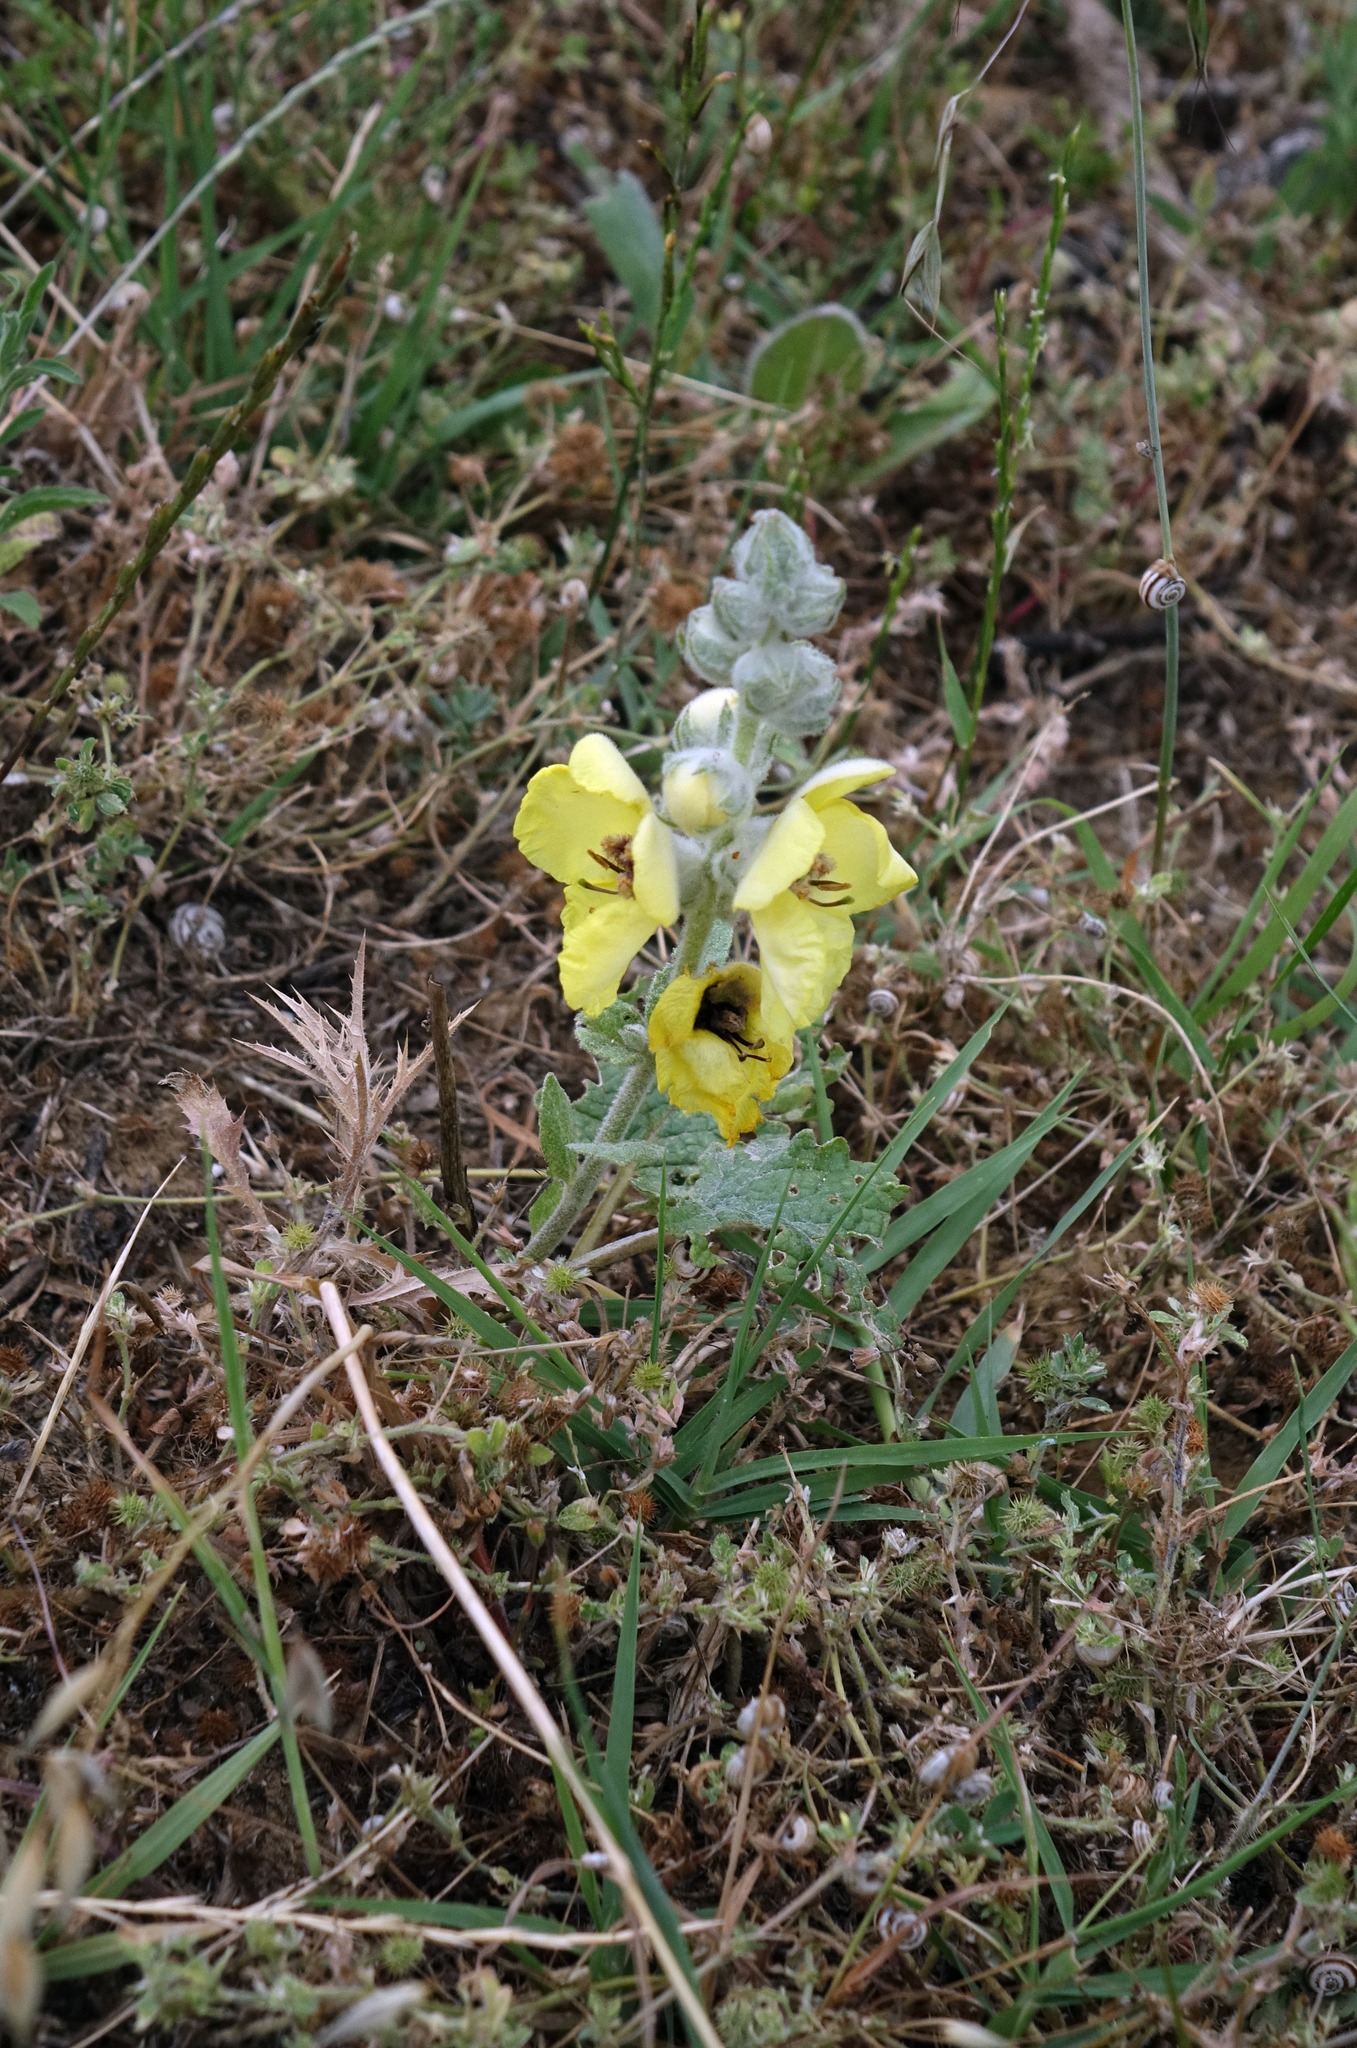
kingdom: Plantae
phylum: Tracheophyta
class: Magnoliopsida
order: Lamiales
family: Scrophulariaceae
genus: Verbascum
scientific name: Verbascum formosum
